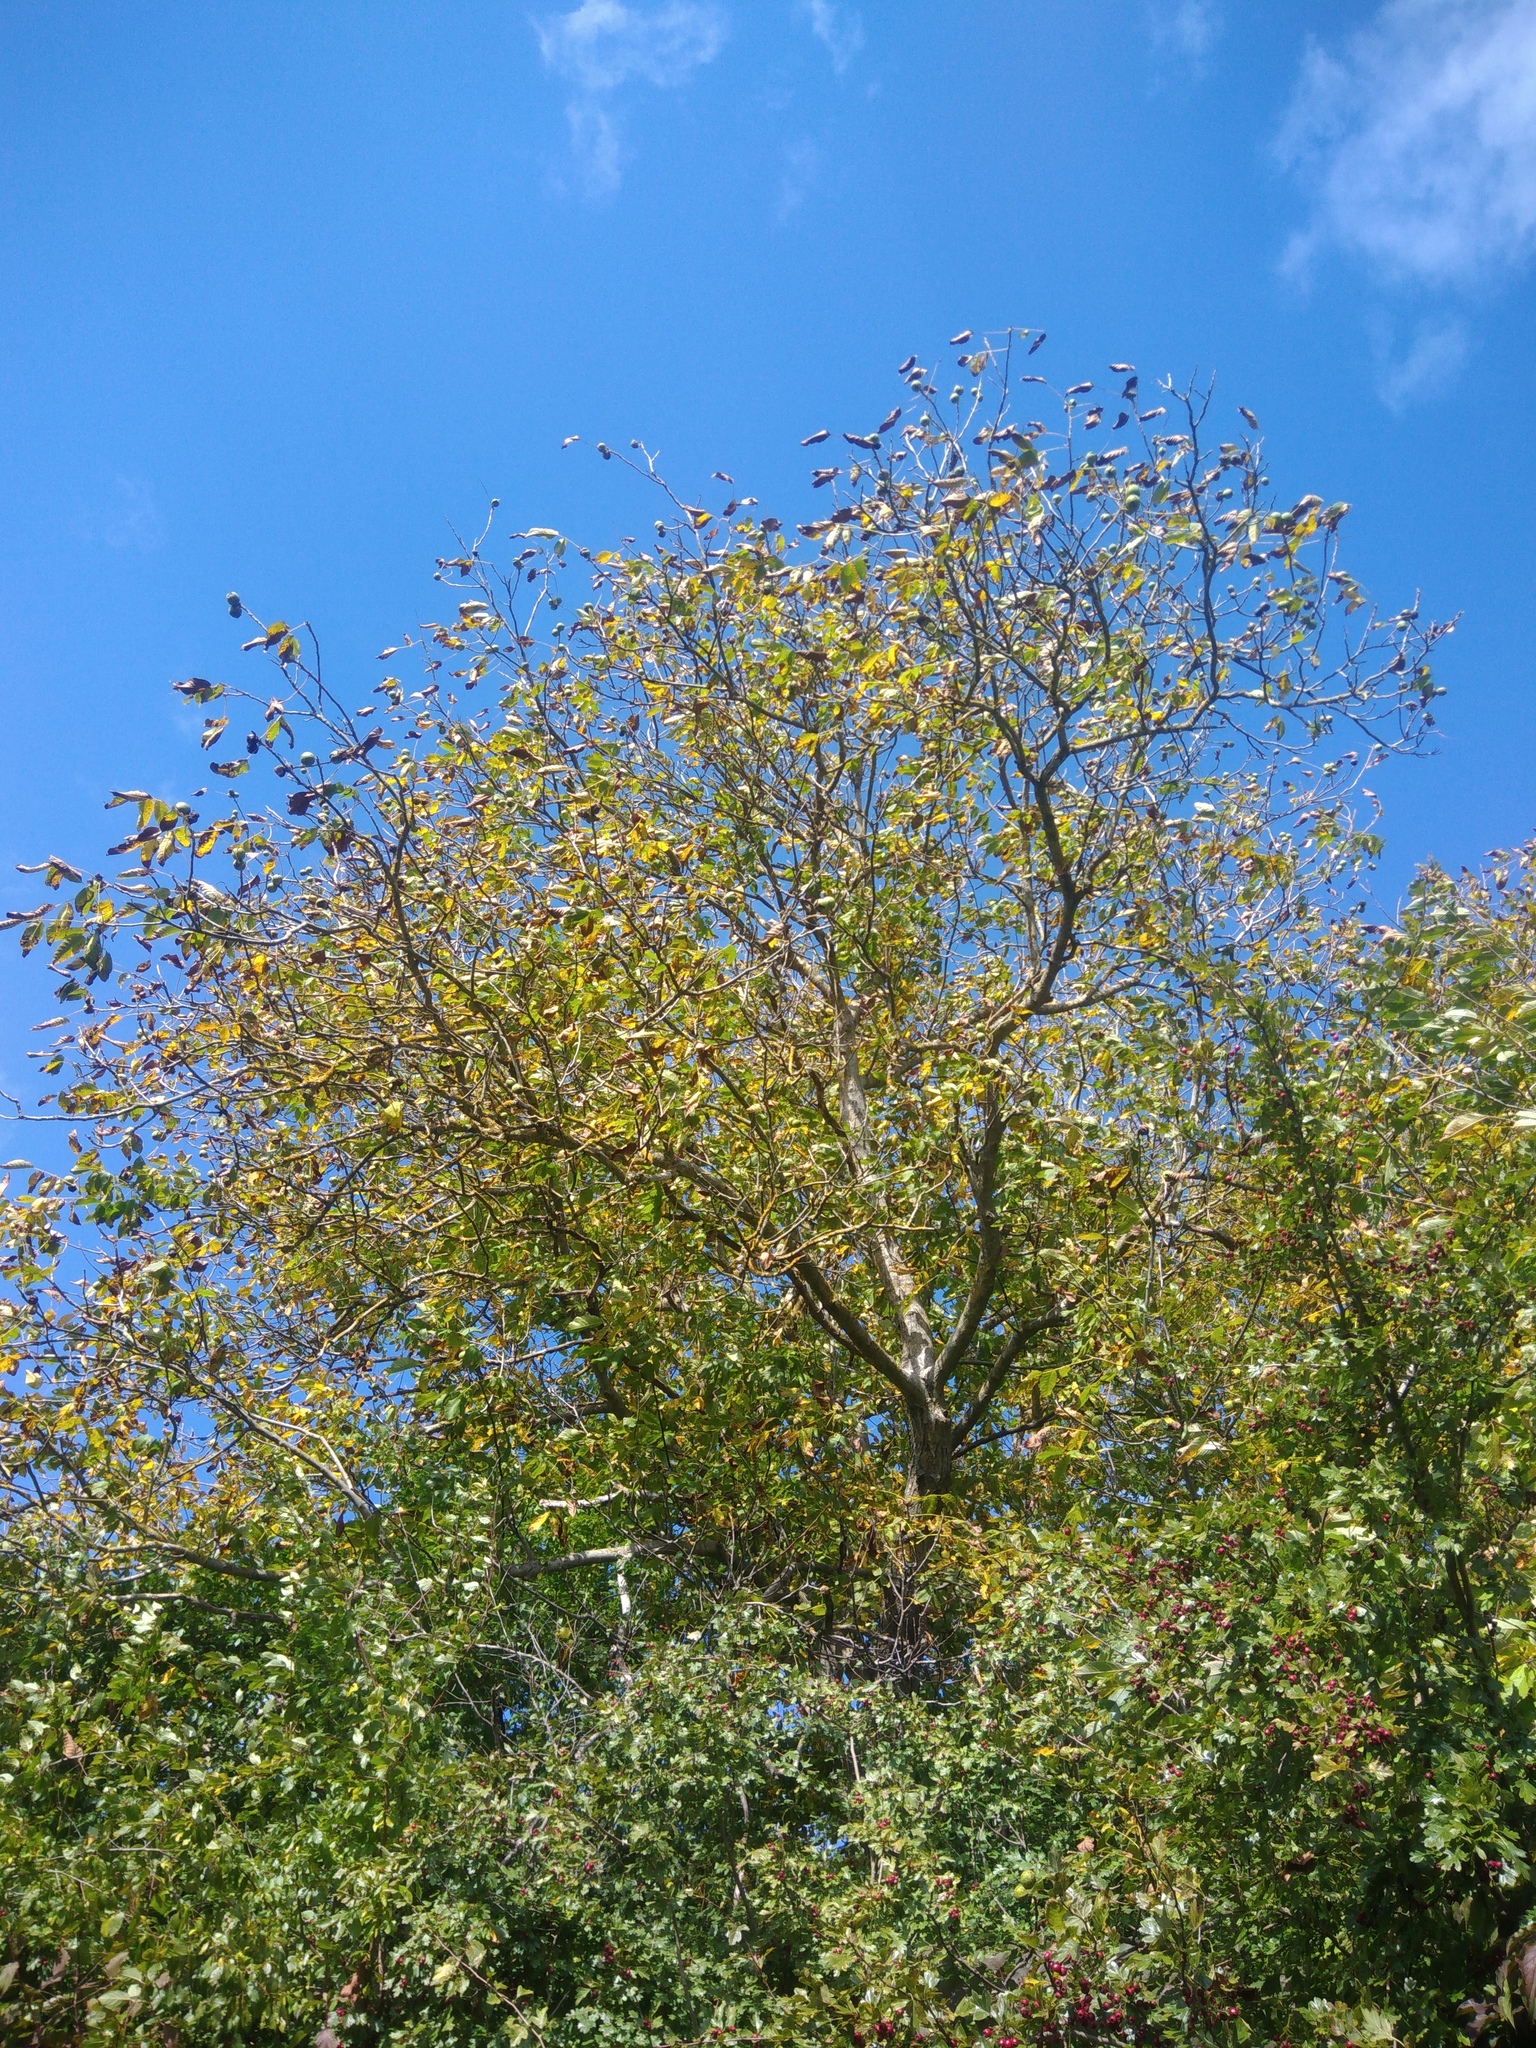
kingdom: Plantae
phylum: Tracheophyta
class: Magnoliopsida
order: Fagales
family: Juglandaceae
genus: Juglans
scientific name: Juglans regia
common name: Walnut
